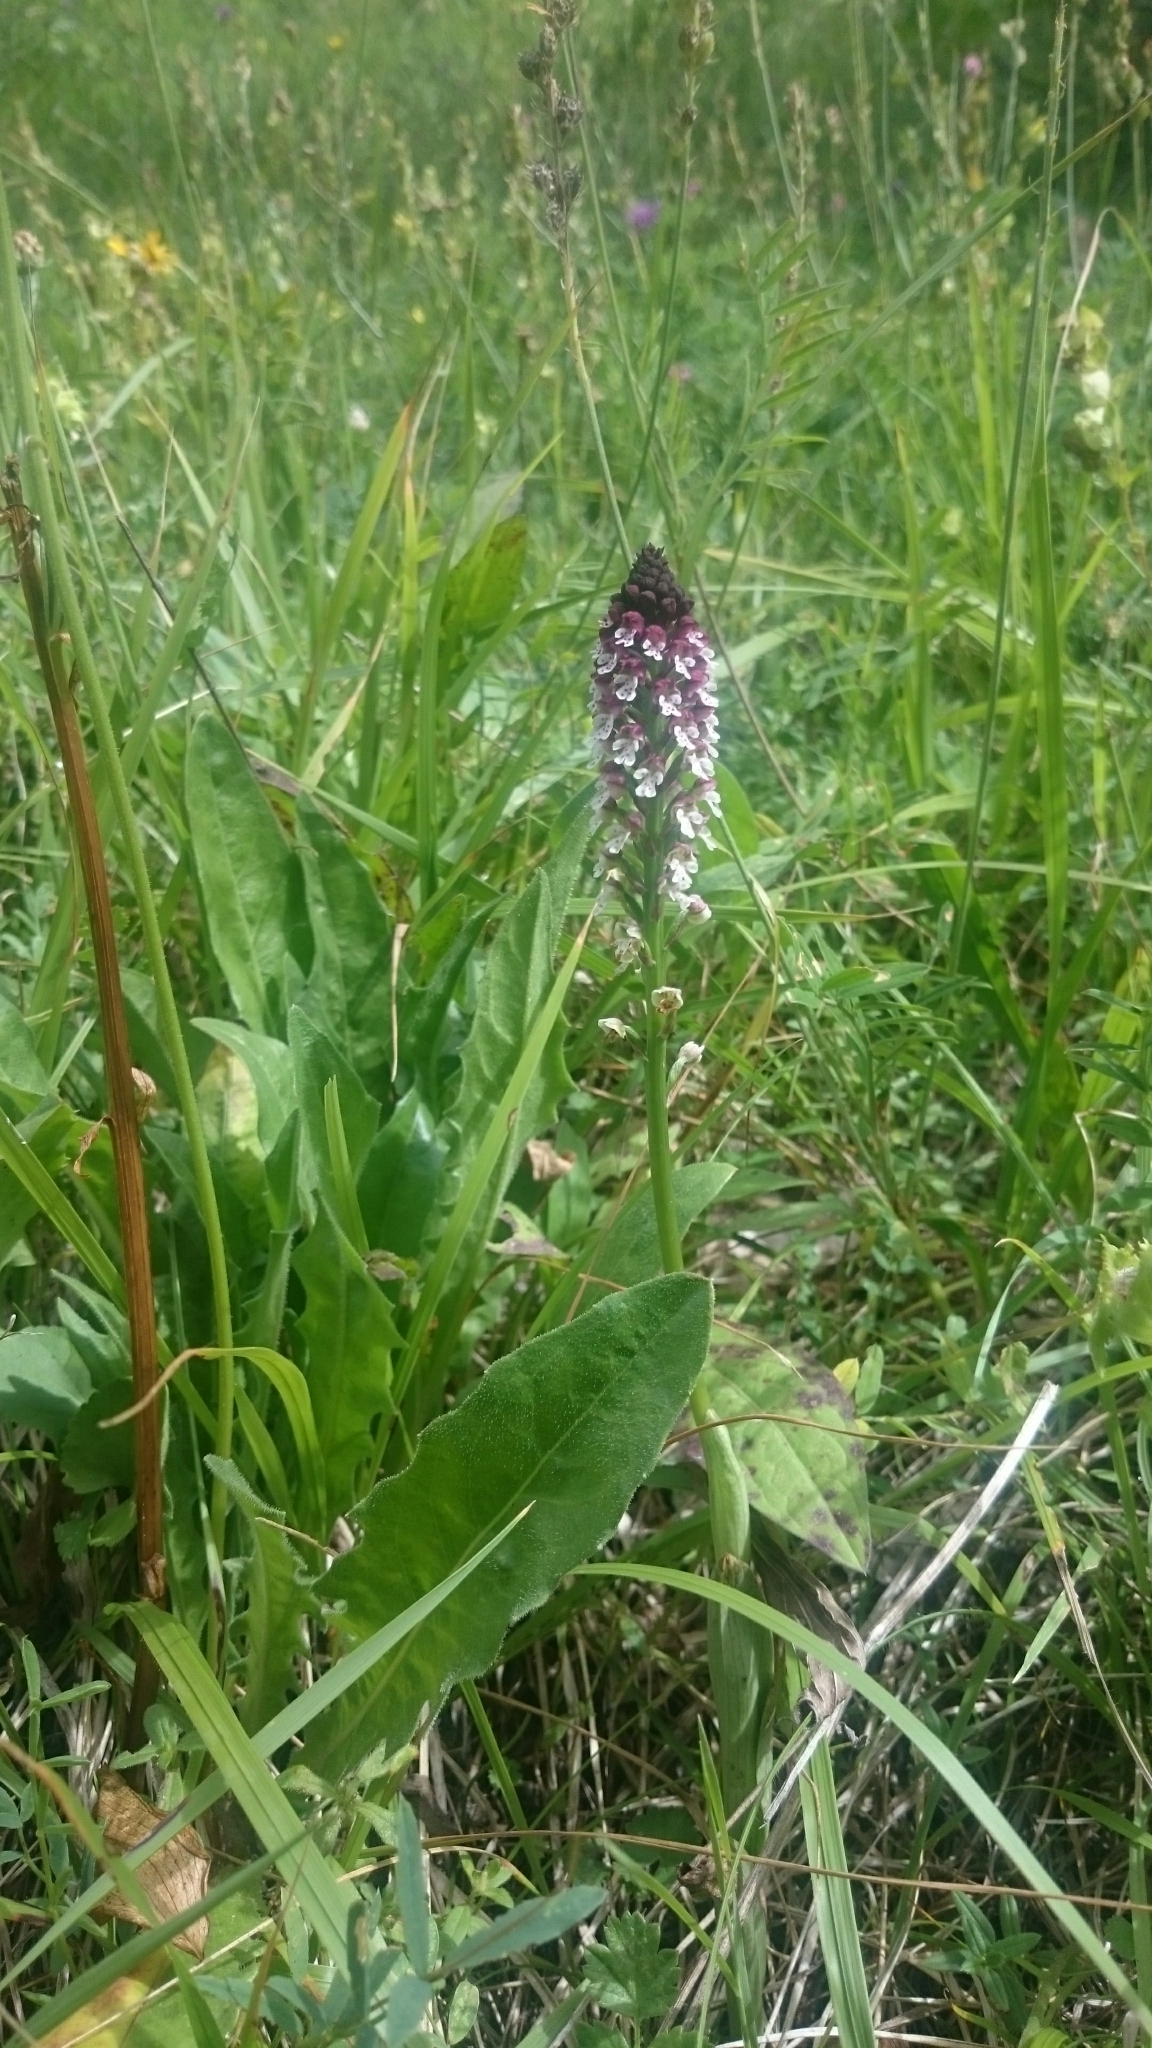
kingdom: Plantae
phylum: Tracheophyta
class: Liliopsida
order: Asparagales
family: Orchidaceae
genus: Neotinea
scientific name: Neotinea ustulata
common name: Burnt orchid
